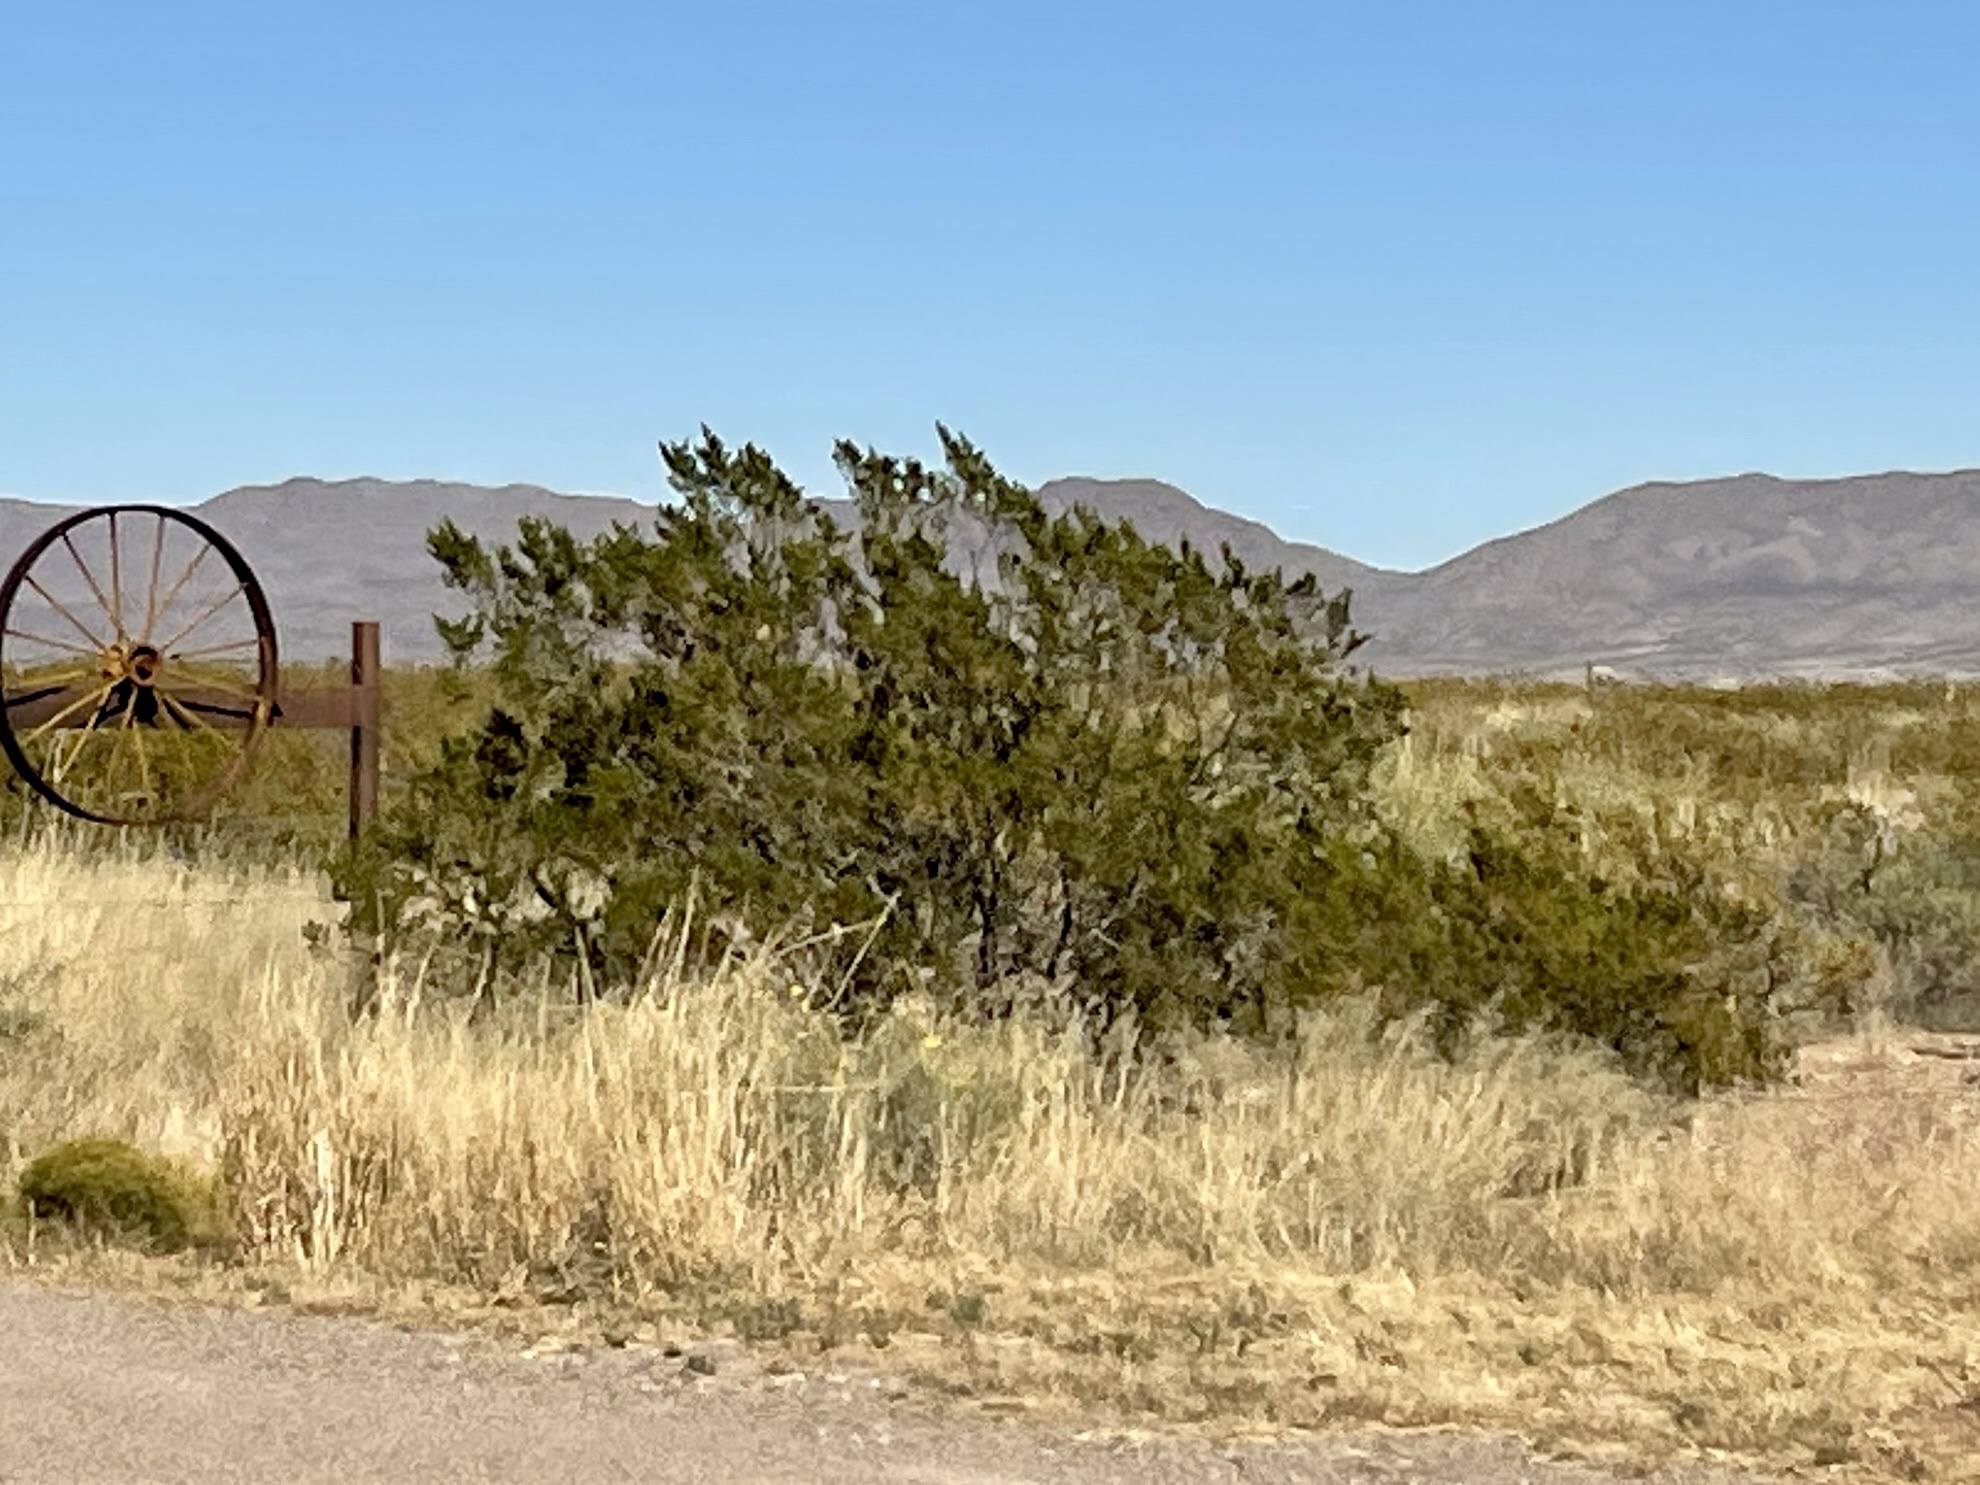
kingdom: Plantae
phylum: Tracheophyta
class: Magnoliopsida
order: Zygophyllales
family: Zygophyllaceae
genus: Larrea
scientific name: Larrea tridentata
